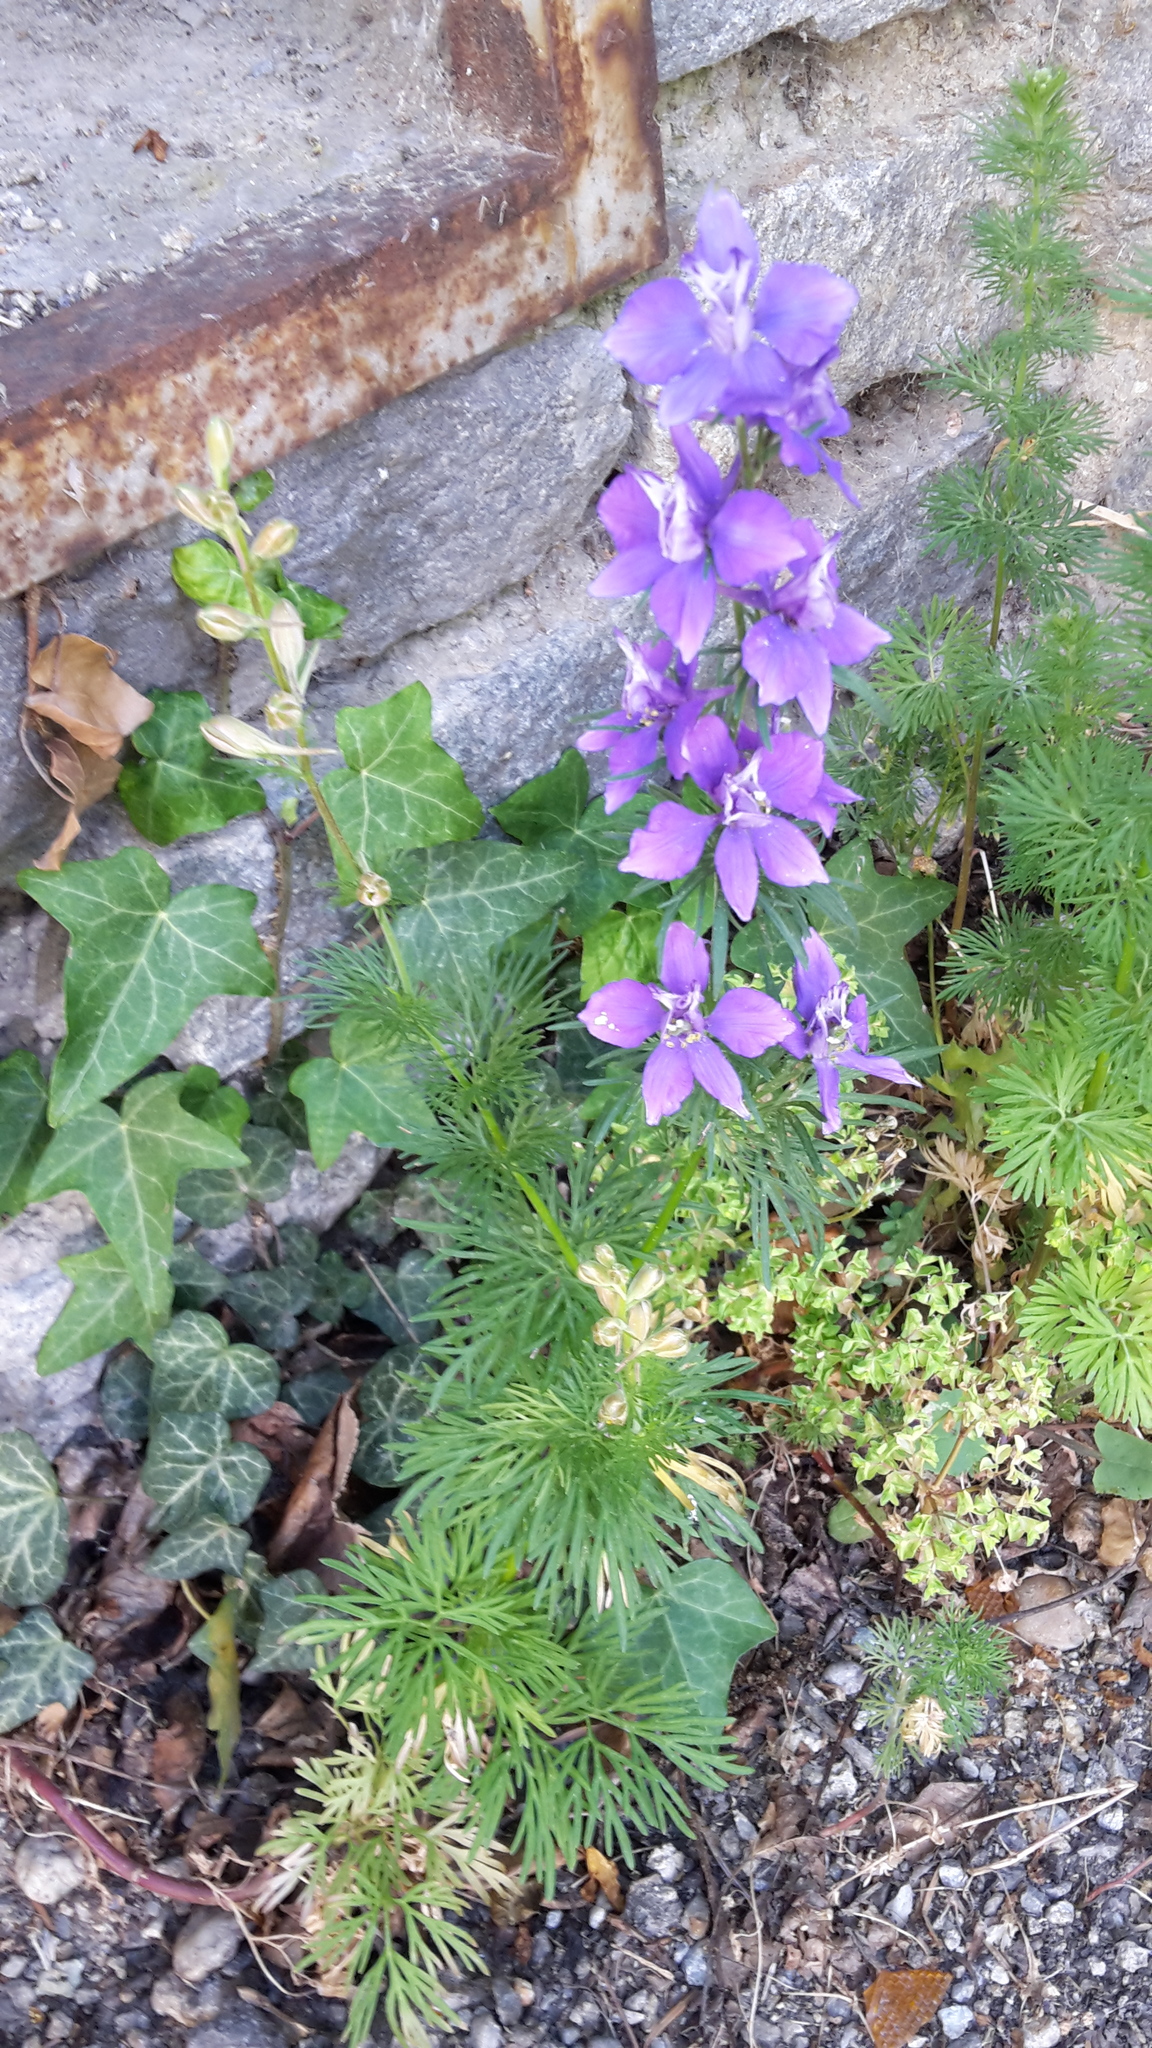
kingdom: Plantae
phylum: Tracheophyta
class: Magnoliopsida
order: Ranunculales
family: Ranunculaceae
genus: Delphinium
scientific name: Delphinium ajacis
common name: Doubtful knight's-spur
